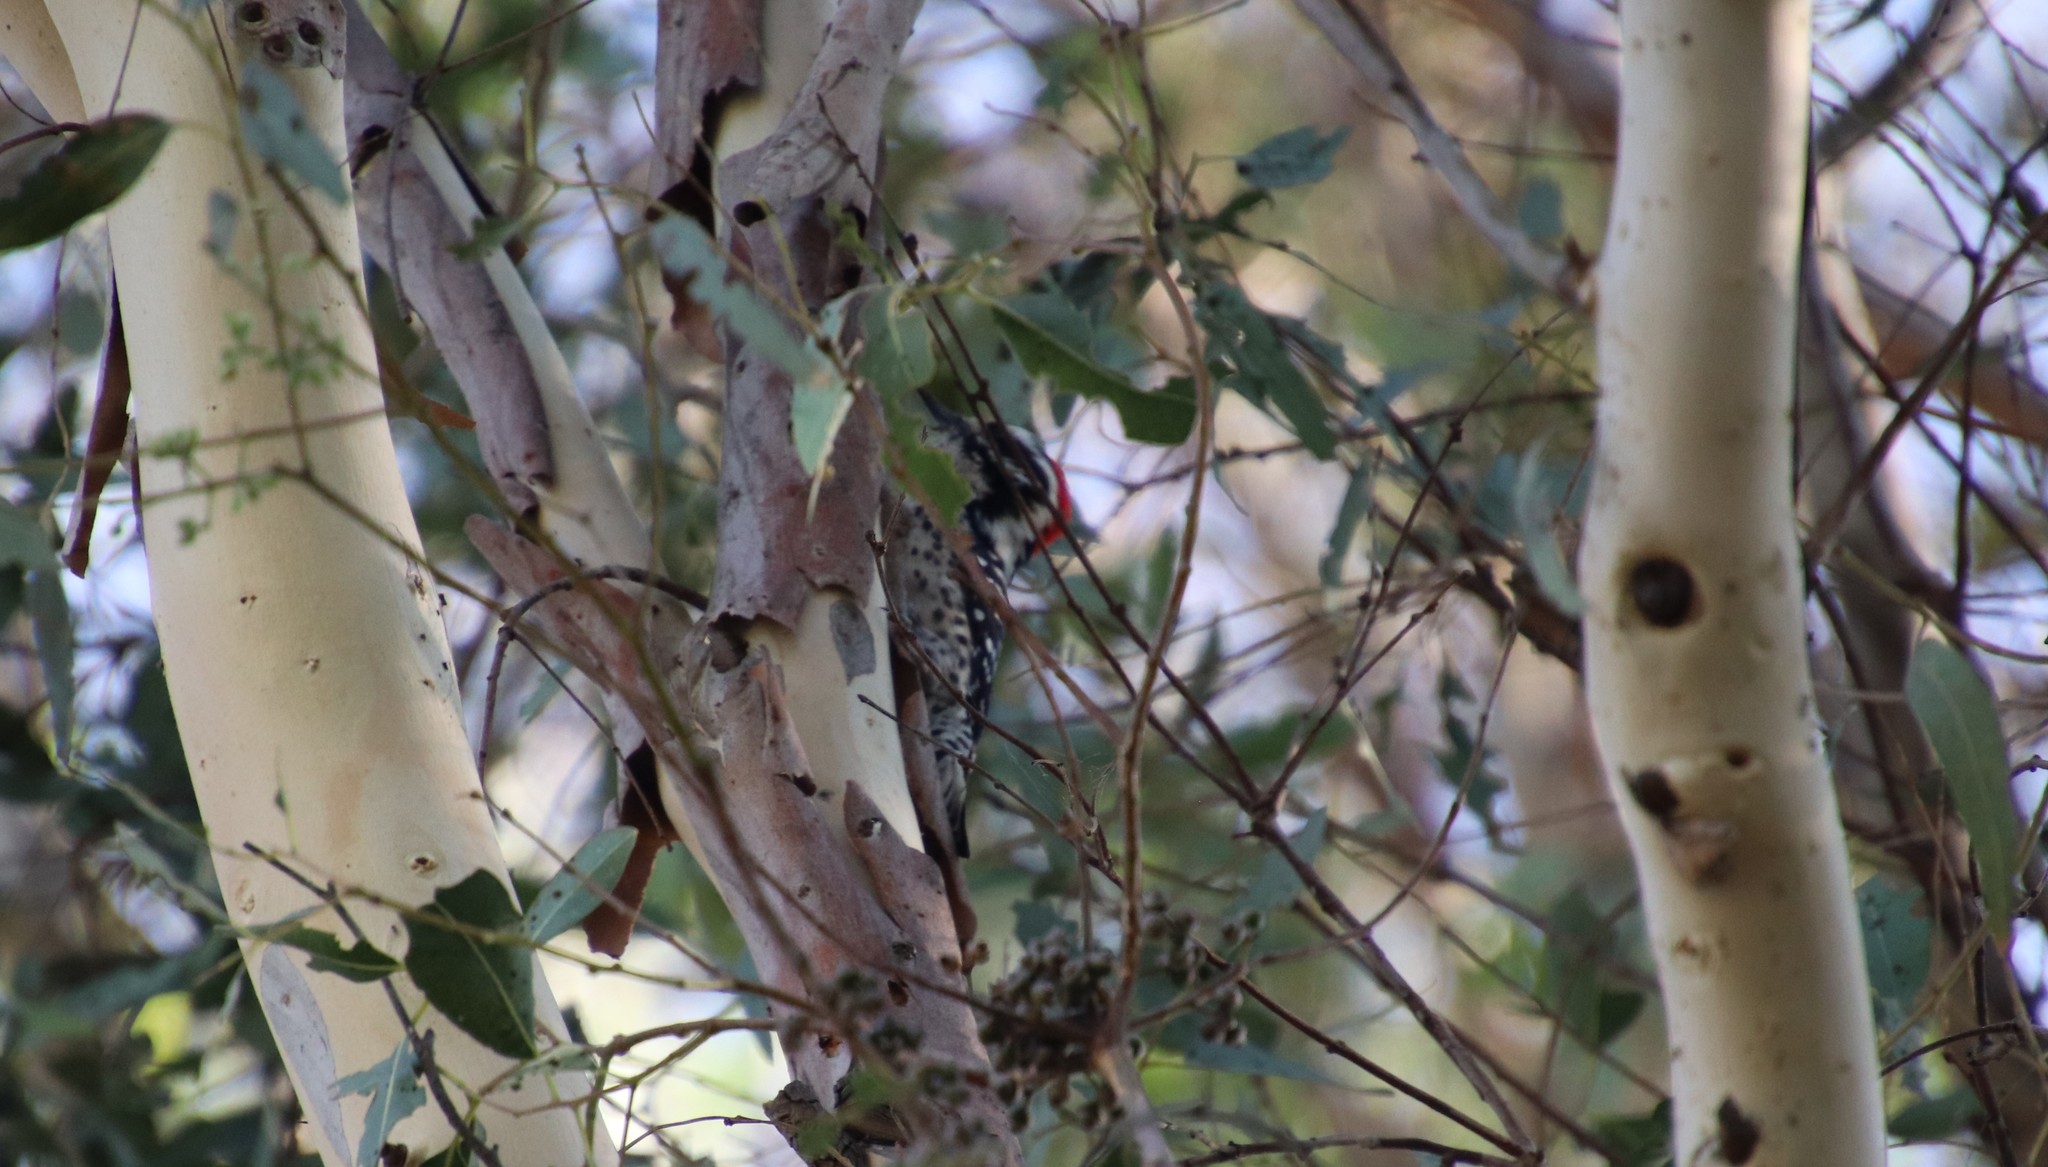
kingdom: Animalia
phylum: Chordata
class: Aves
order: Piciformes
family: Picidae
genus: Dryobates
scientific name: Dryobates nuttallii
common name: Nuttall's woodpecker
